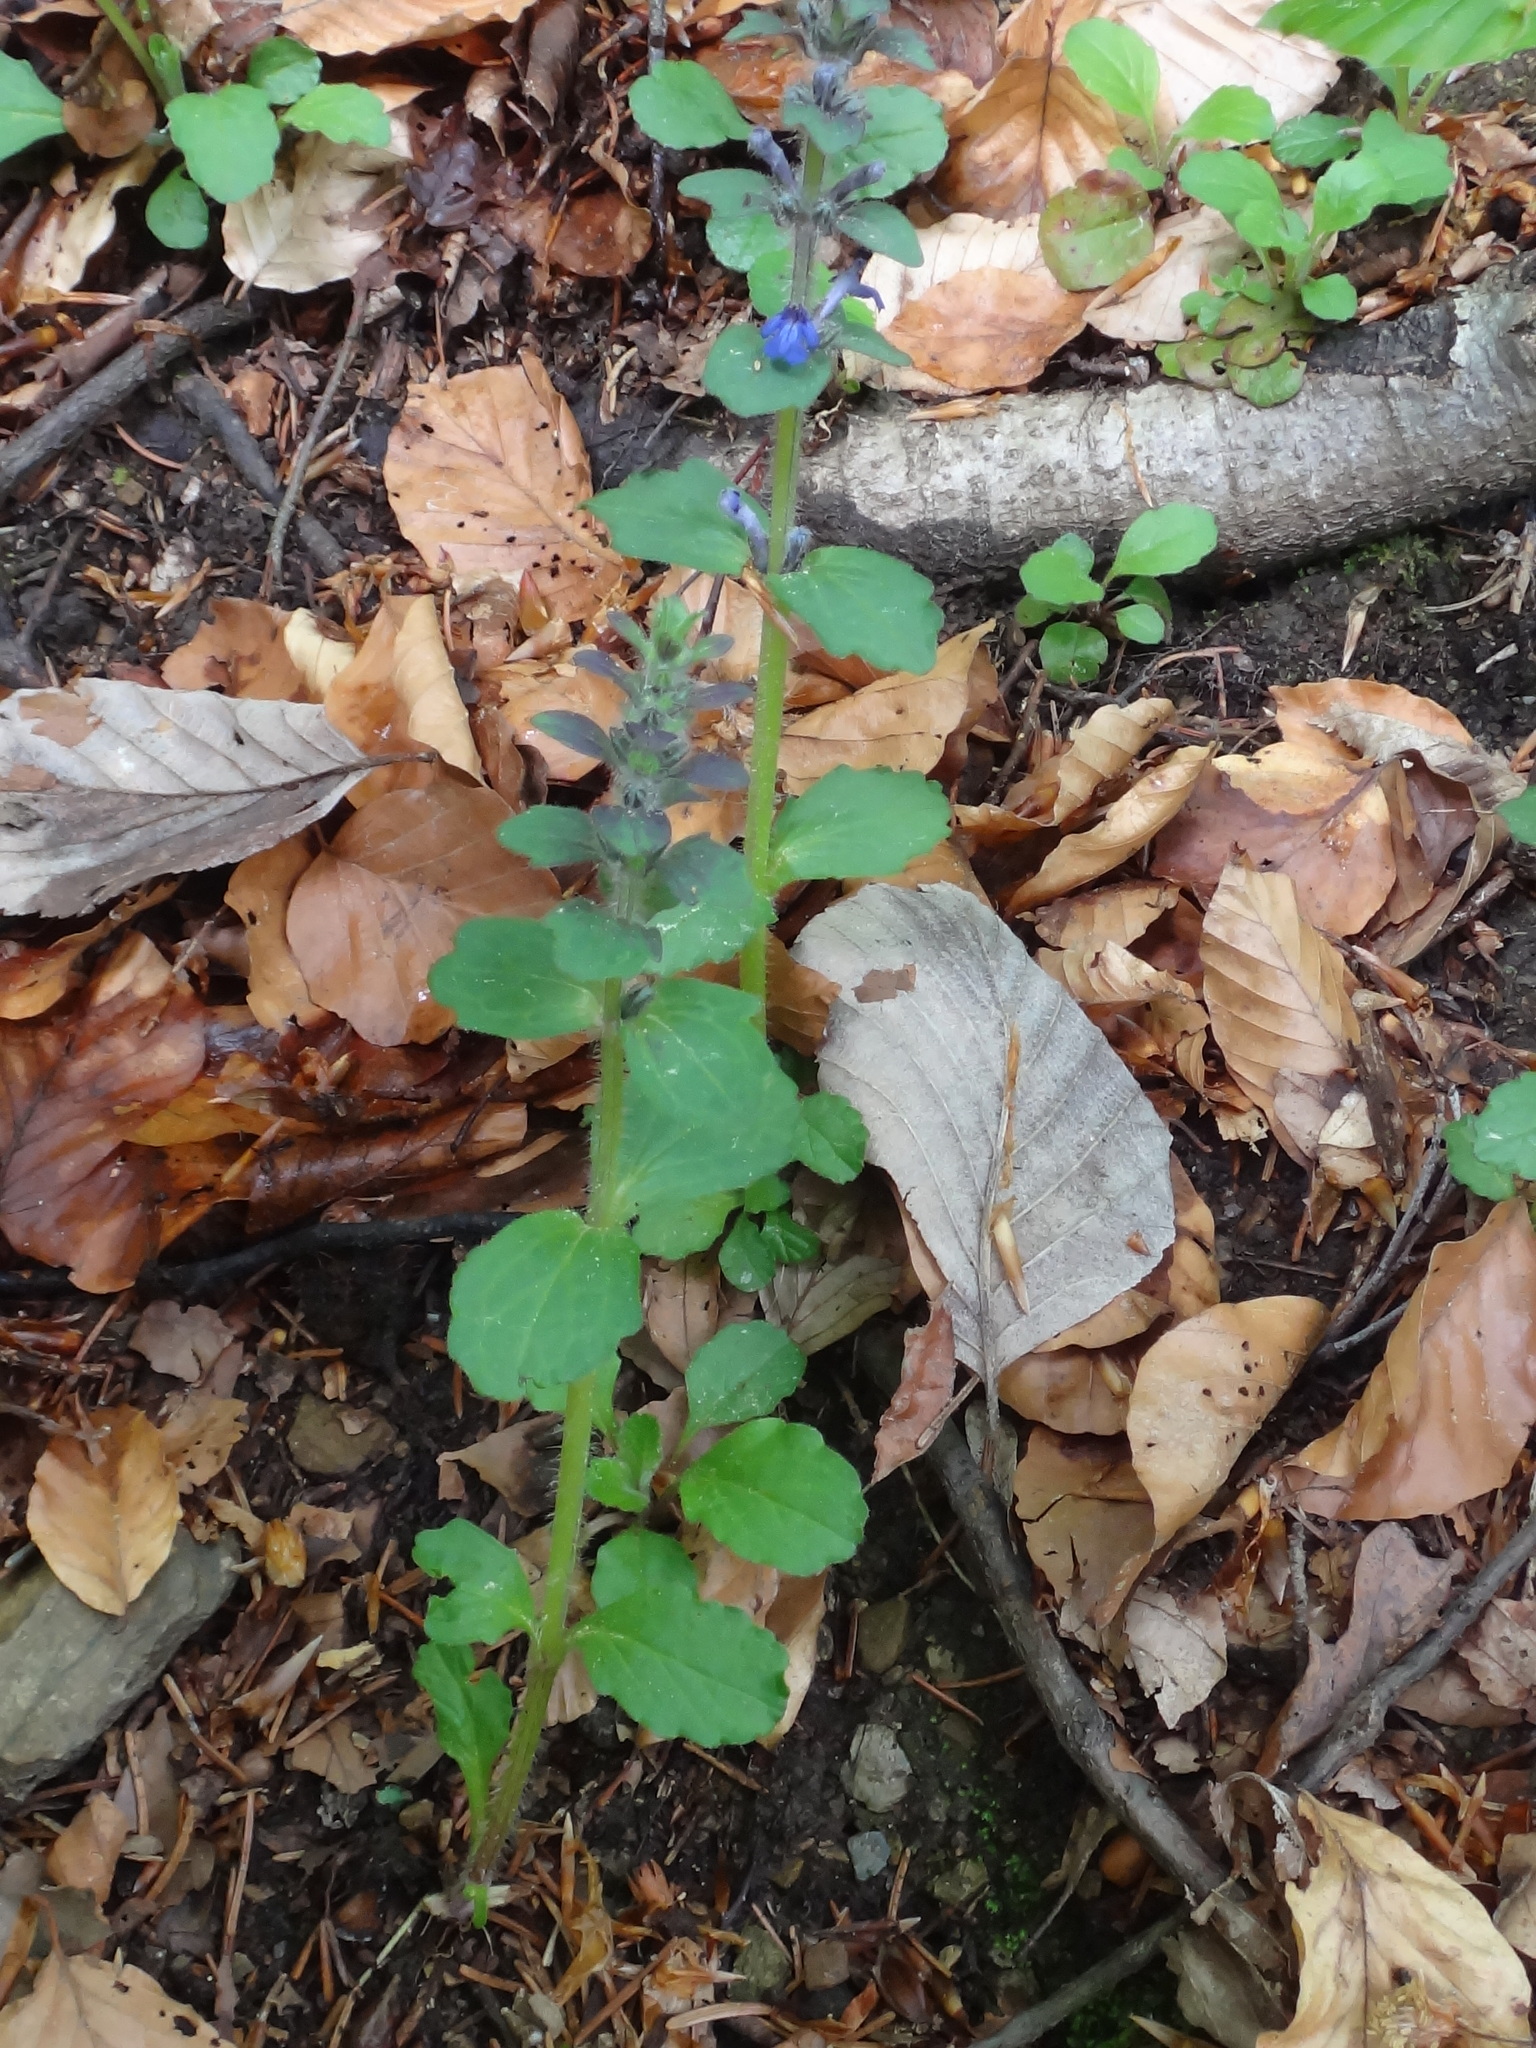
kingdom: Plantae
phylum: Tracheophyta
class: Magnoliopsida
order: Lamiales
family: Lamiaceae
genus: Ajuga
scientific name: Ajuga genevensis
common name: Blue bugle
